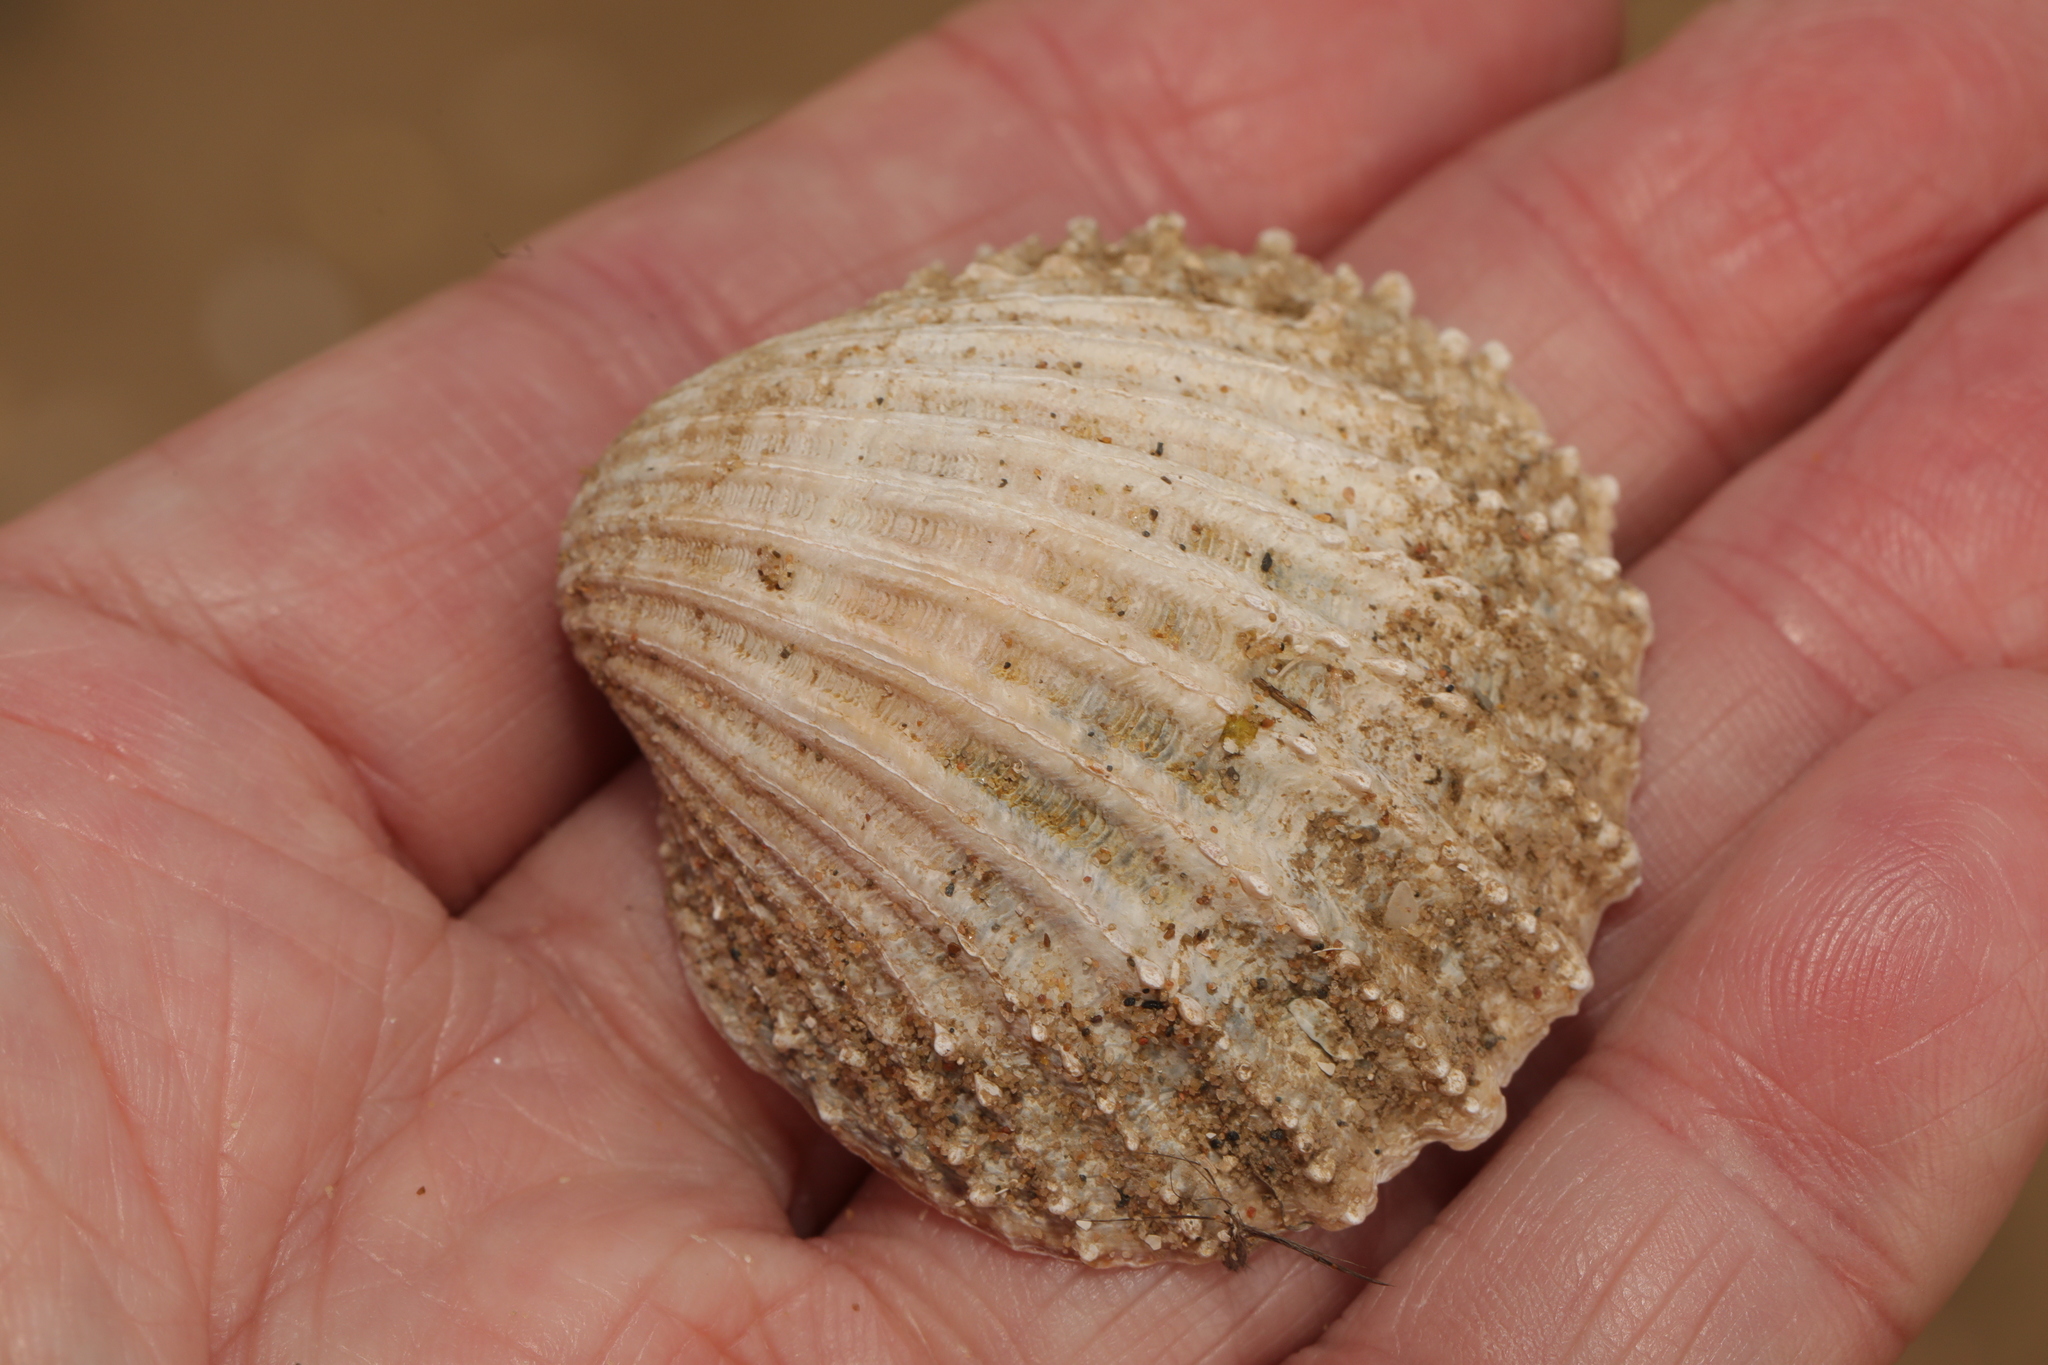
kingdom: Animalia
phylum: Mollusca
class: Bivalvia
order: Cardiida
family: Cardiidae
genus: Acanthocardia
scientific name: Acanthocardia echinata
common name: Prickly cockle
